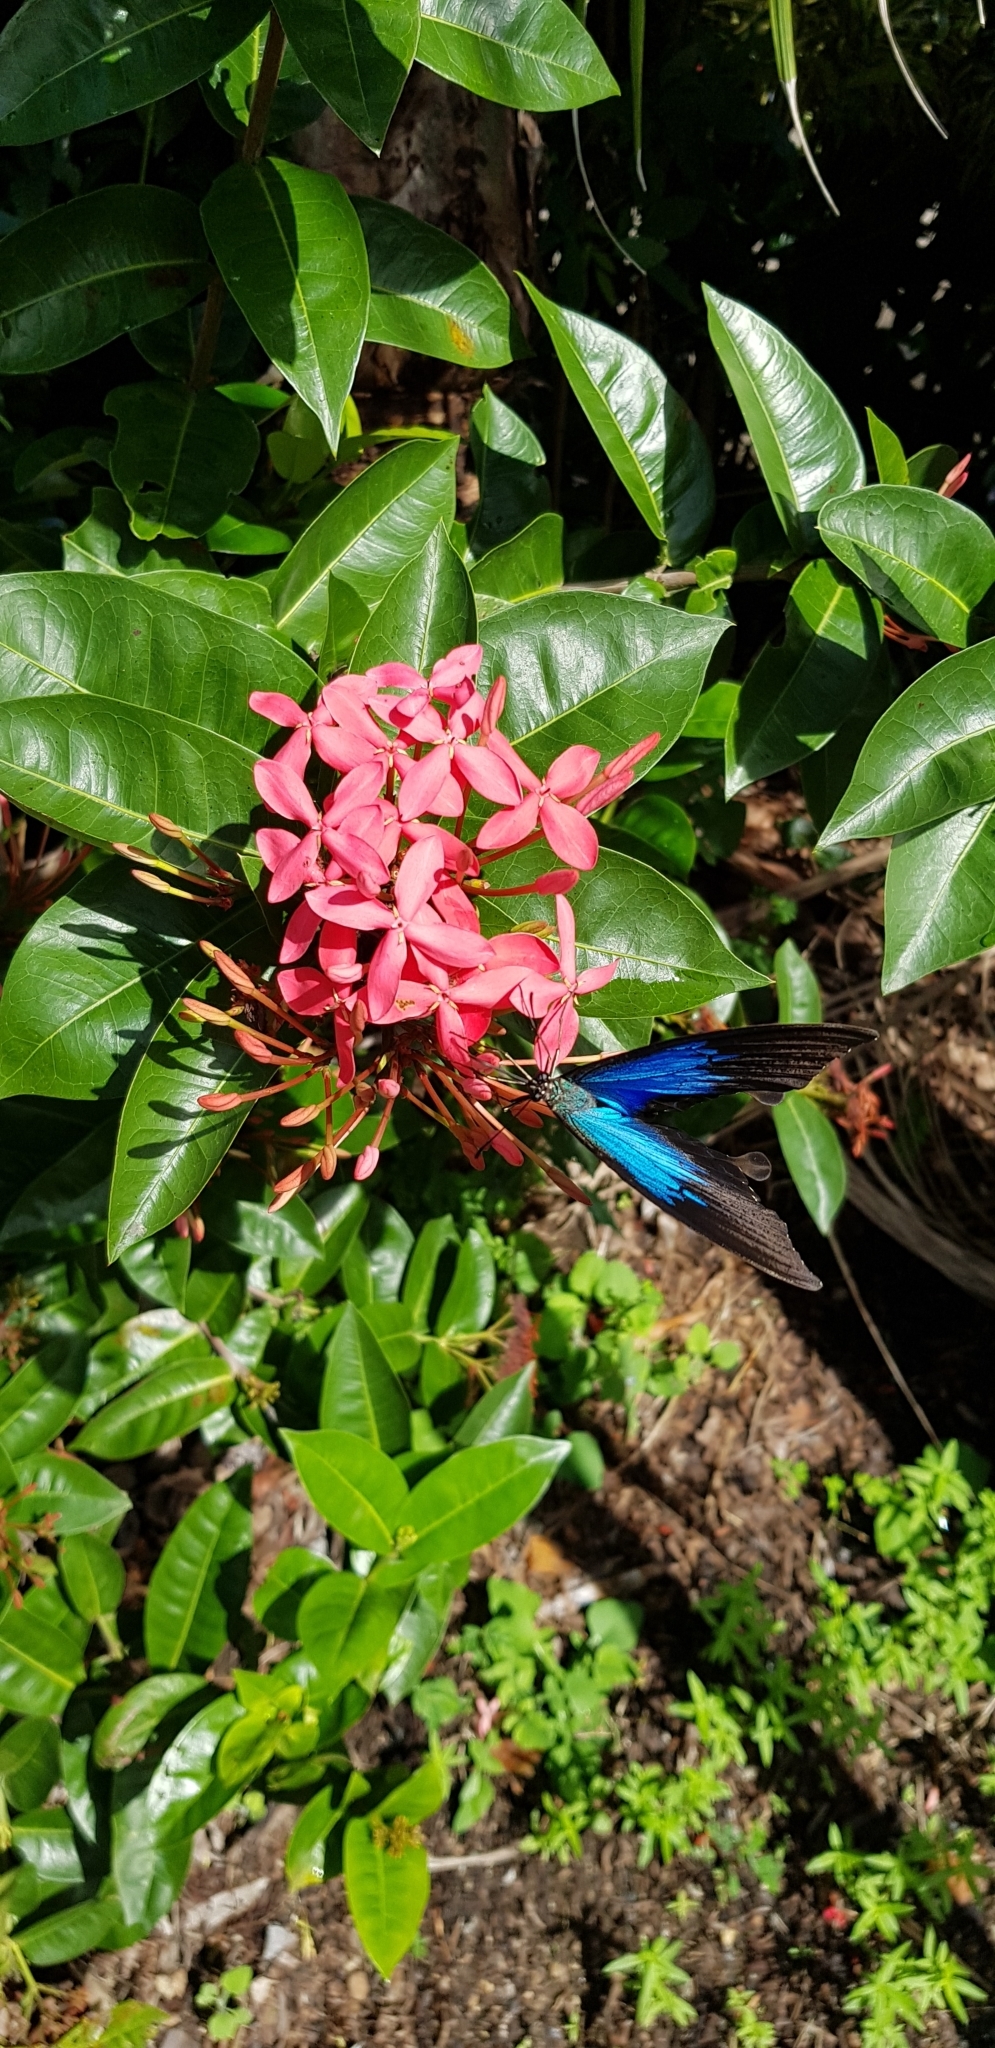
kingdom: Plantae
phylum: Tracheophyta
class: Magnoliopsida
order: Gentianales
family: Rubiaceae
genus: Ixora
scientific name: Ixora coccinea
